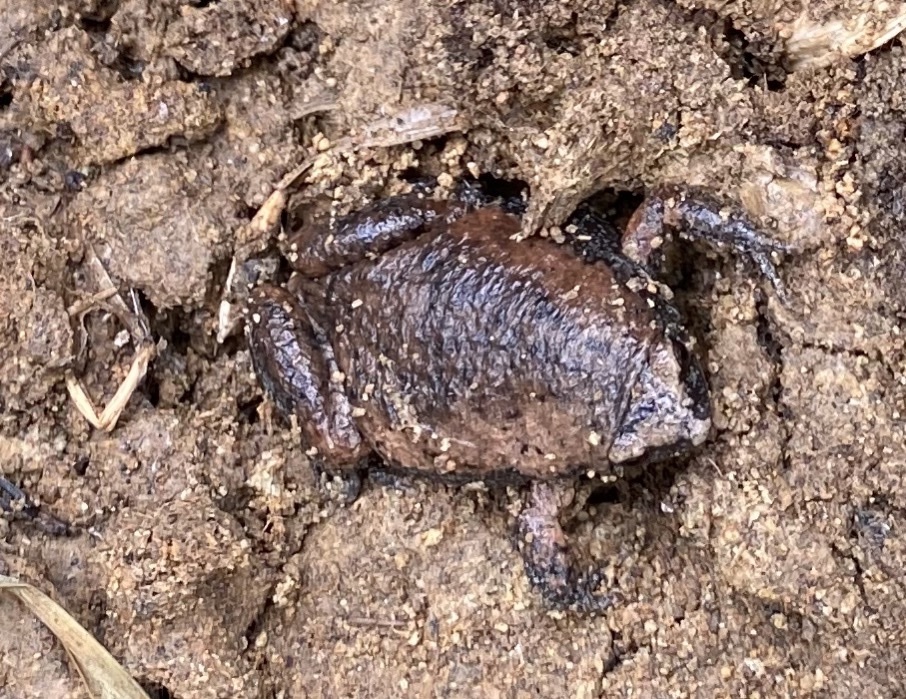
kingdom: Animalia
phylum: Chordata
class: Amphibia
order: Anura
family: Microhylidae
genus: Gastrophryne
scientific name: Gastrophryne carolinensis
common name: Eastern narrowmouth toad
